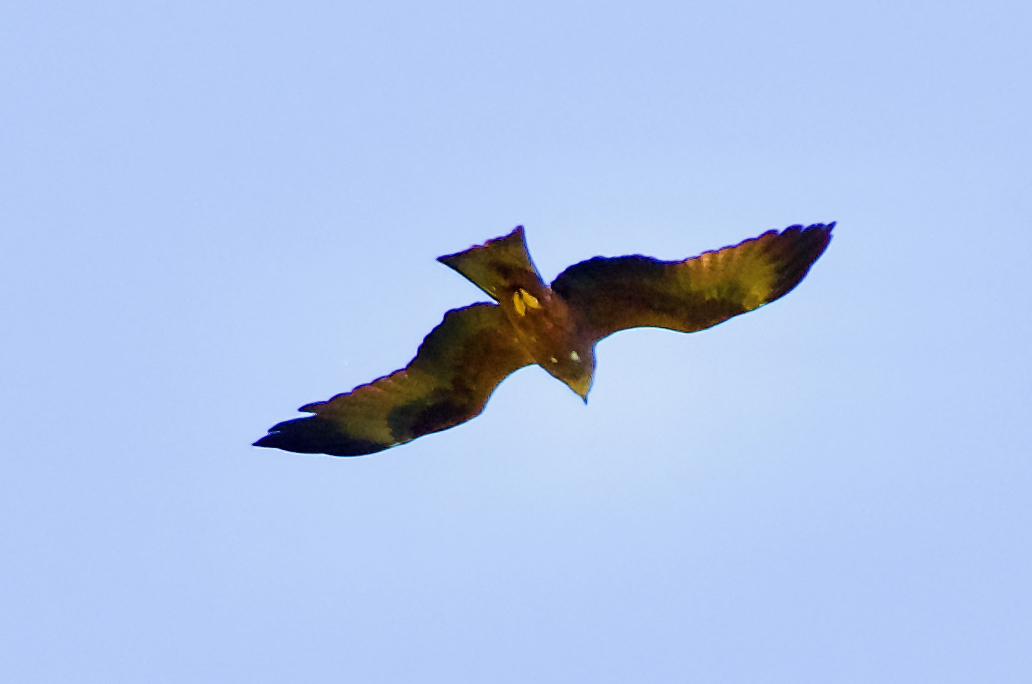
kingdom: Animalia
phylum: Chordata
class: Aves
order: Accipitriformes
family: Accipitridae
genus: Milvus
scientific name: Milvus migrans
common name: Black kite
